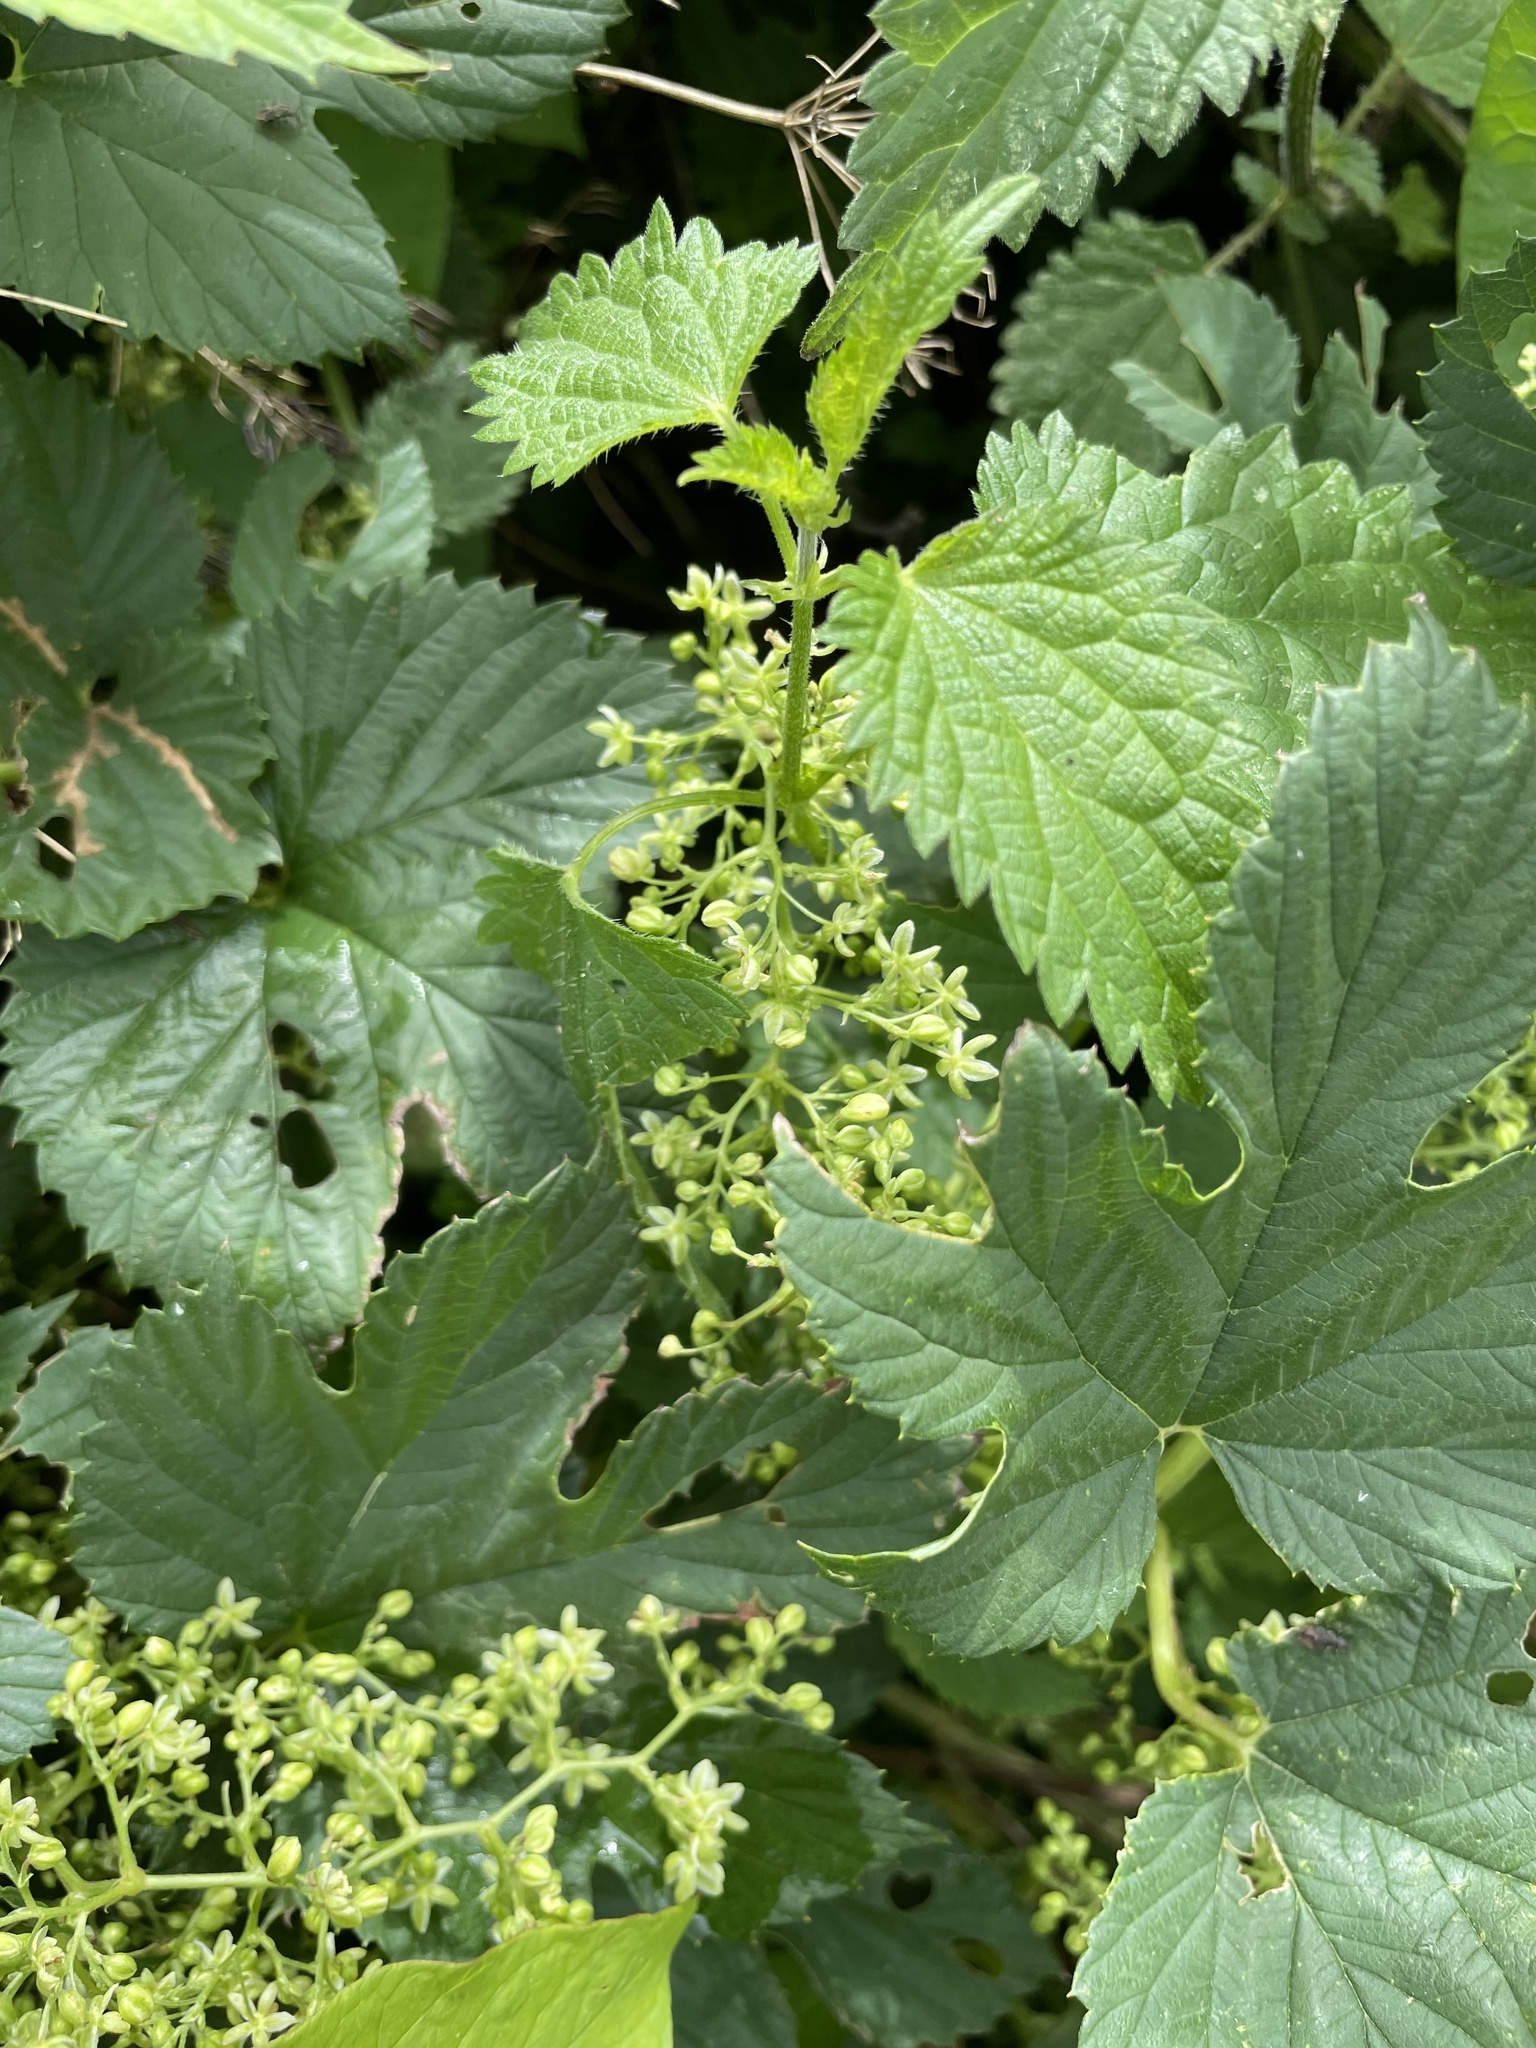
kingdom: Plantae
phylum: Tracheophyta
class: Magnoliopsida
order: Rosales
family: Cannabaceae
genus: Humulus
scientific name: Humulus lupulus
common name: Hop
